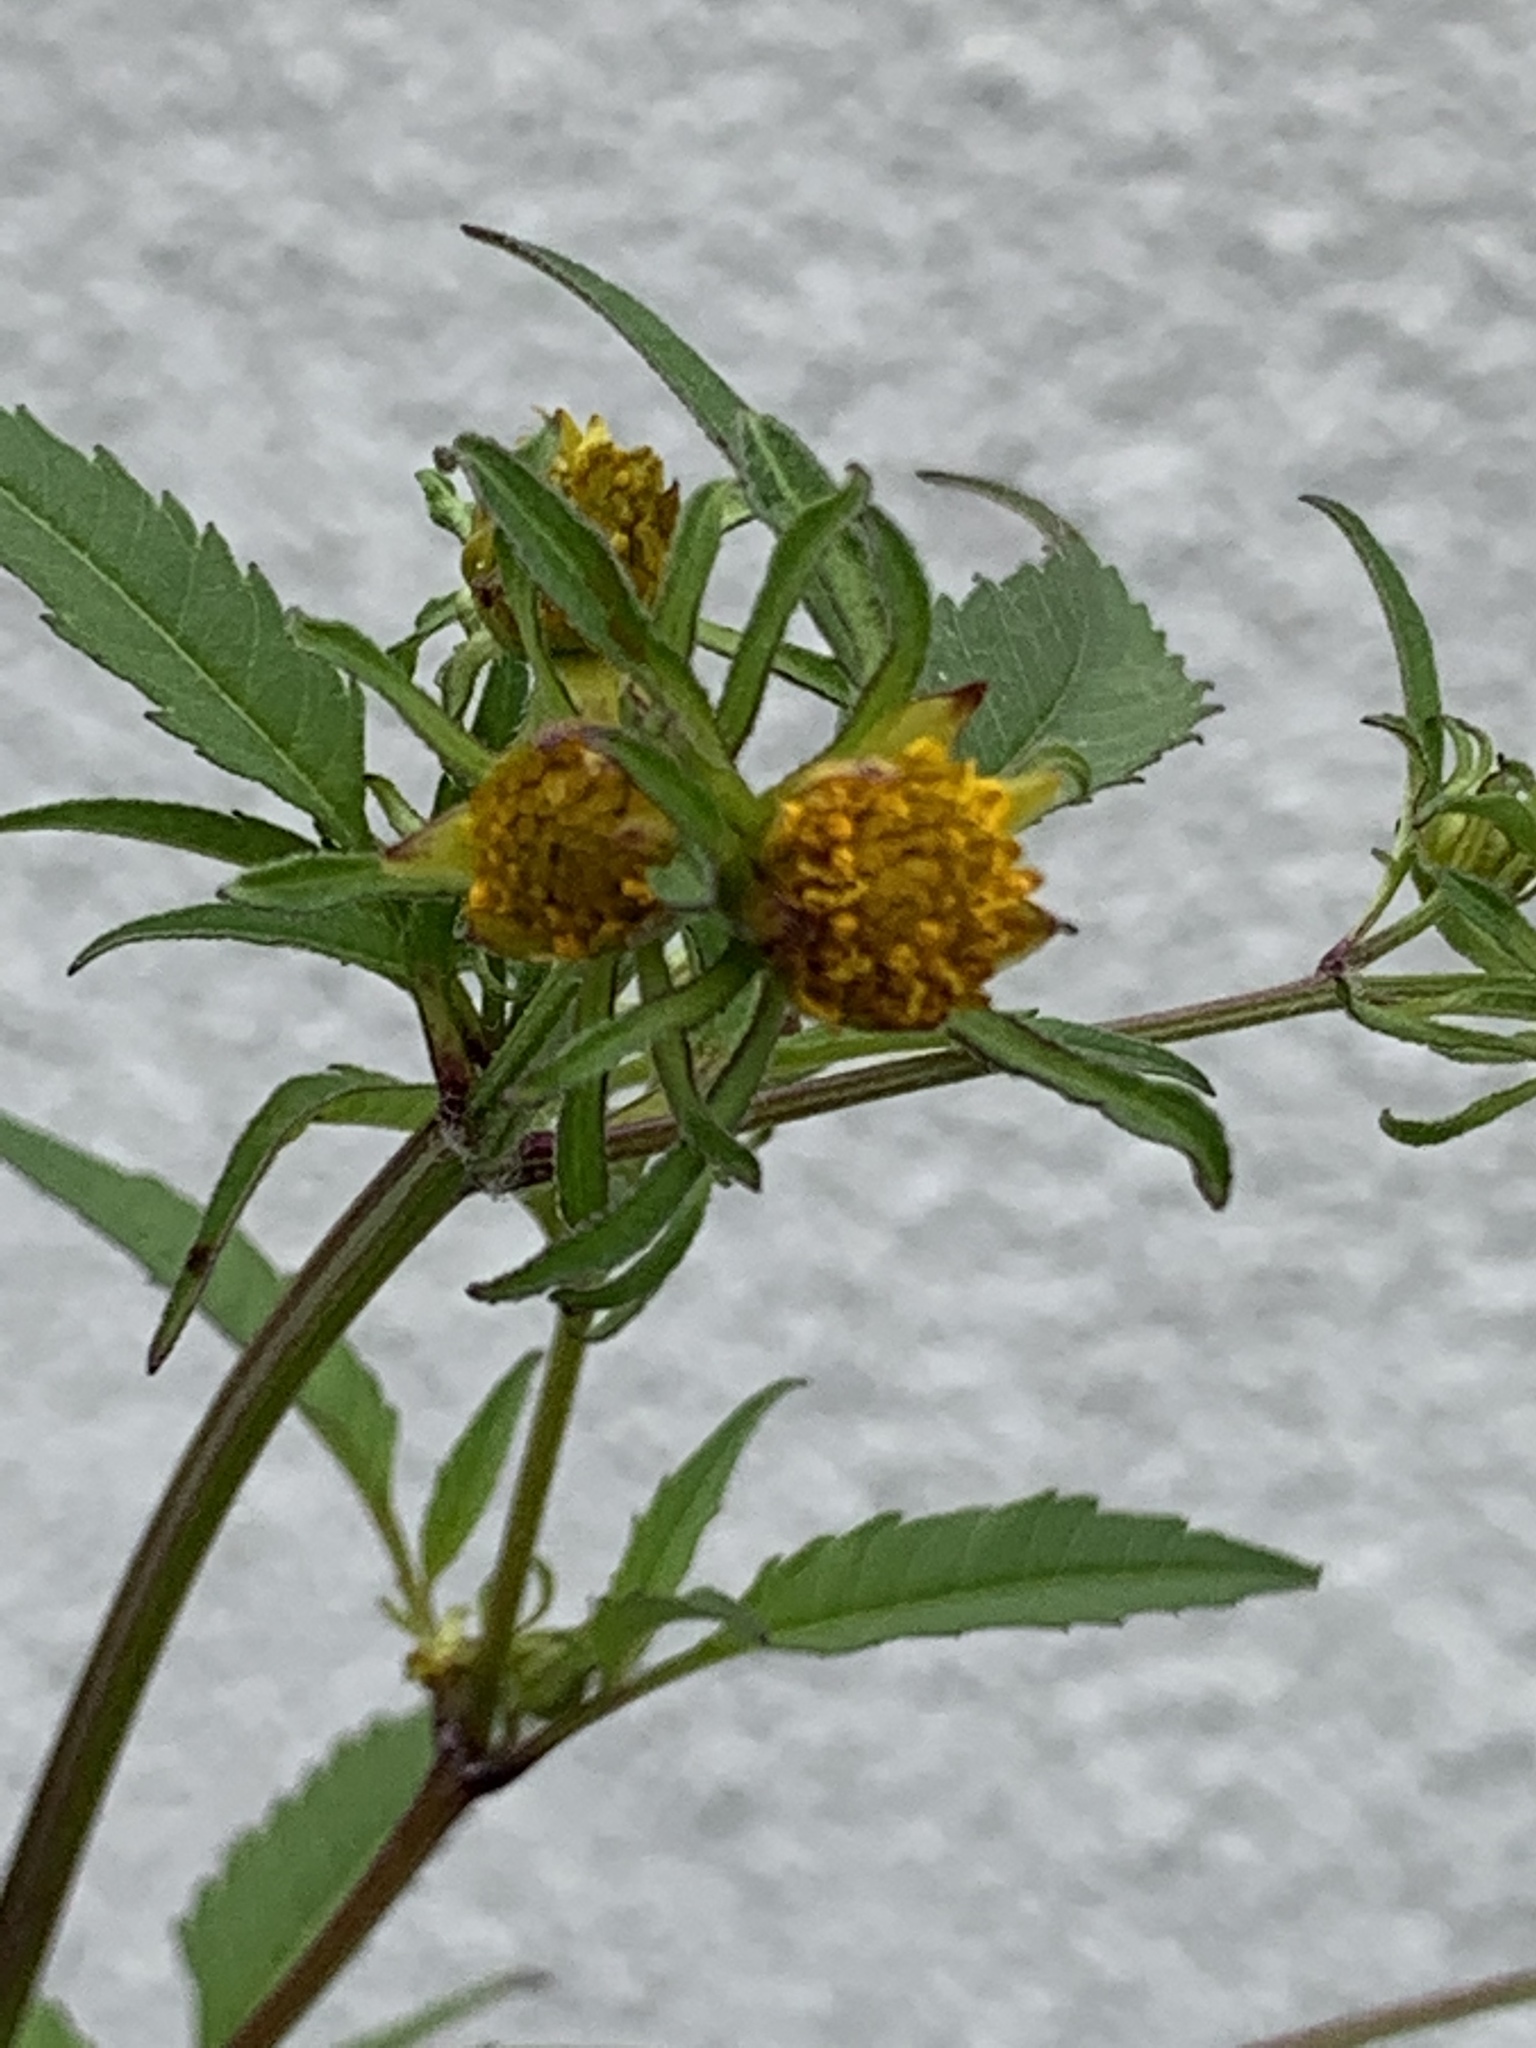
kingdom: Plantae
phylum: Tracheophyta
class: Magnoliopsida
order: Asterales
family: Asteraceae
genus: Bidens
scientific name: Bidens frondosa
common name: Beggarticks
